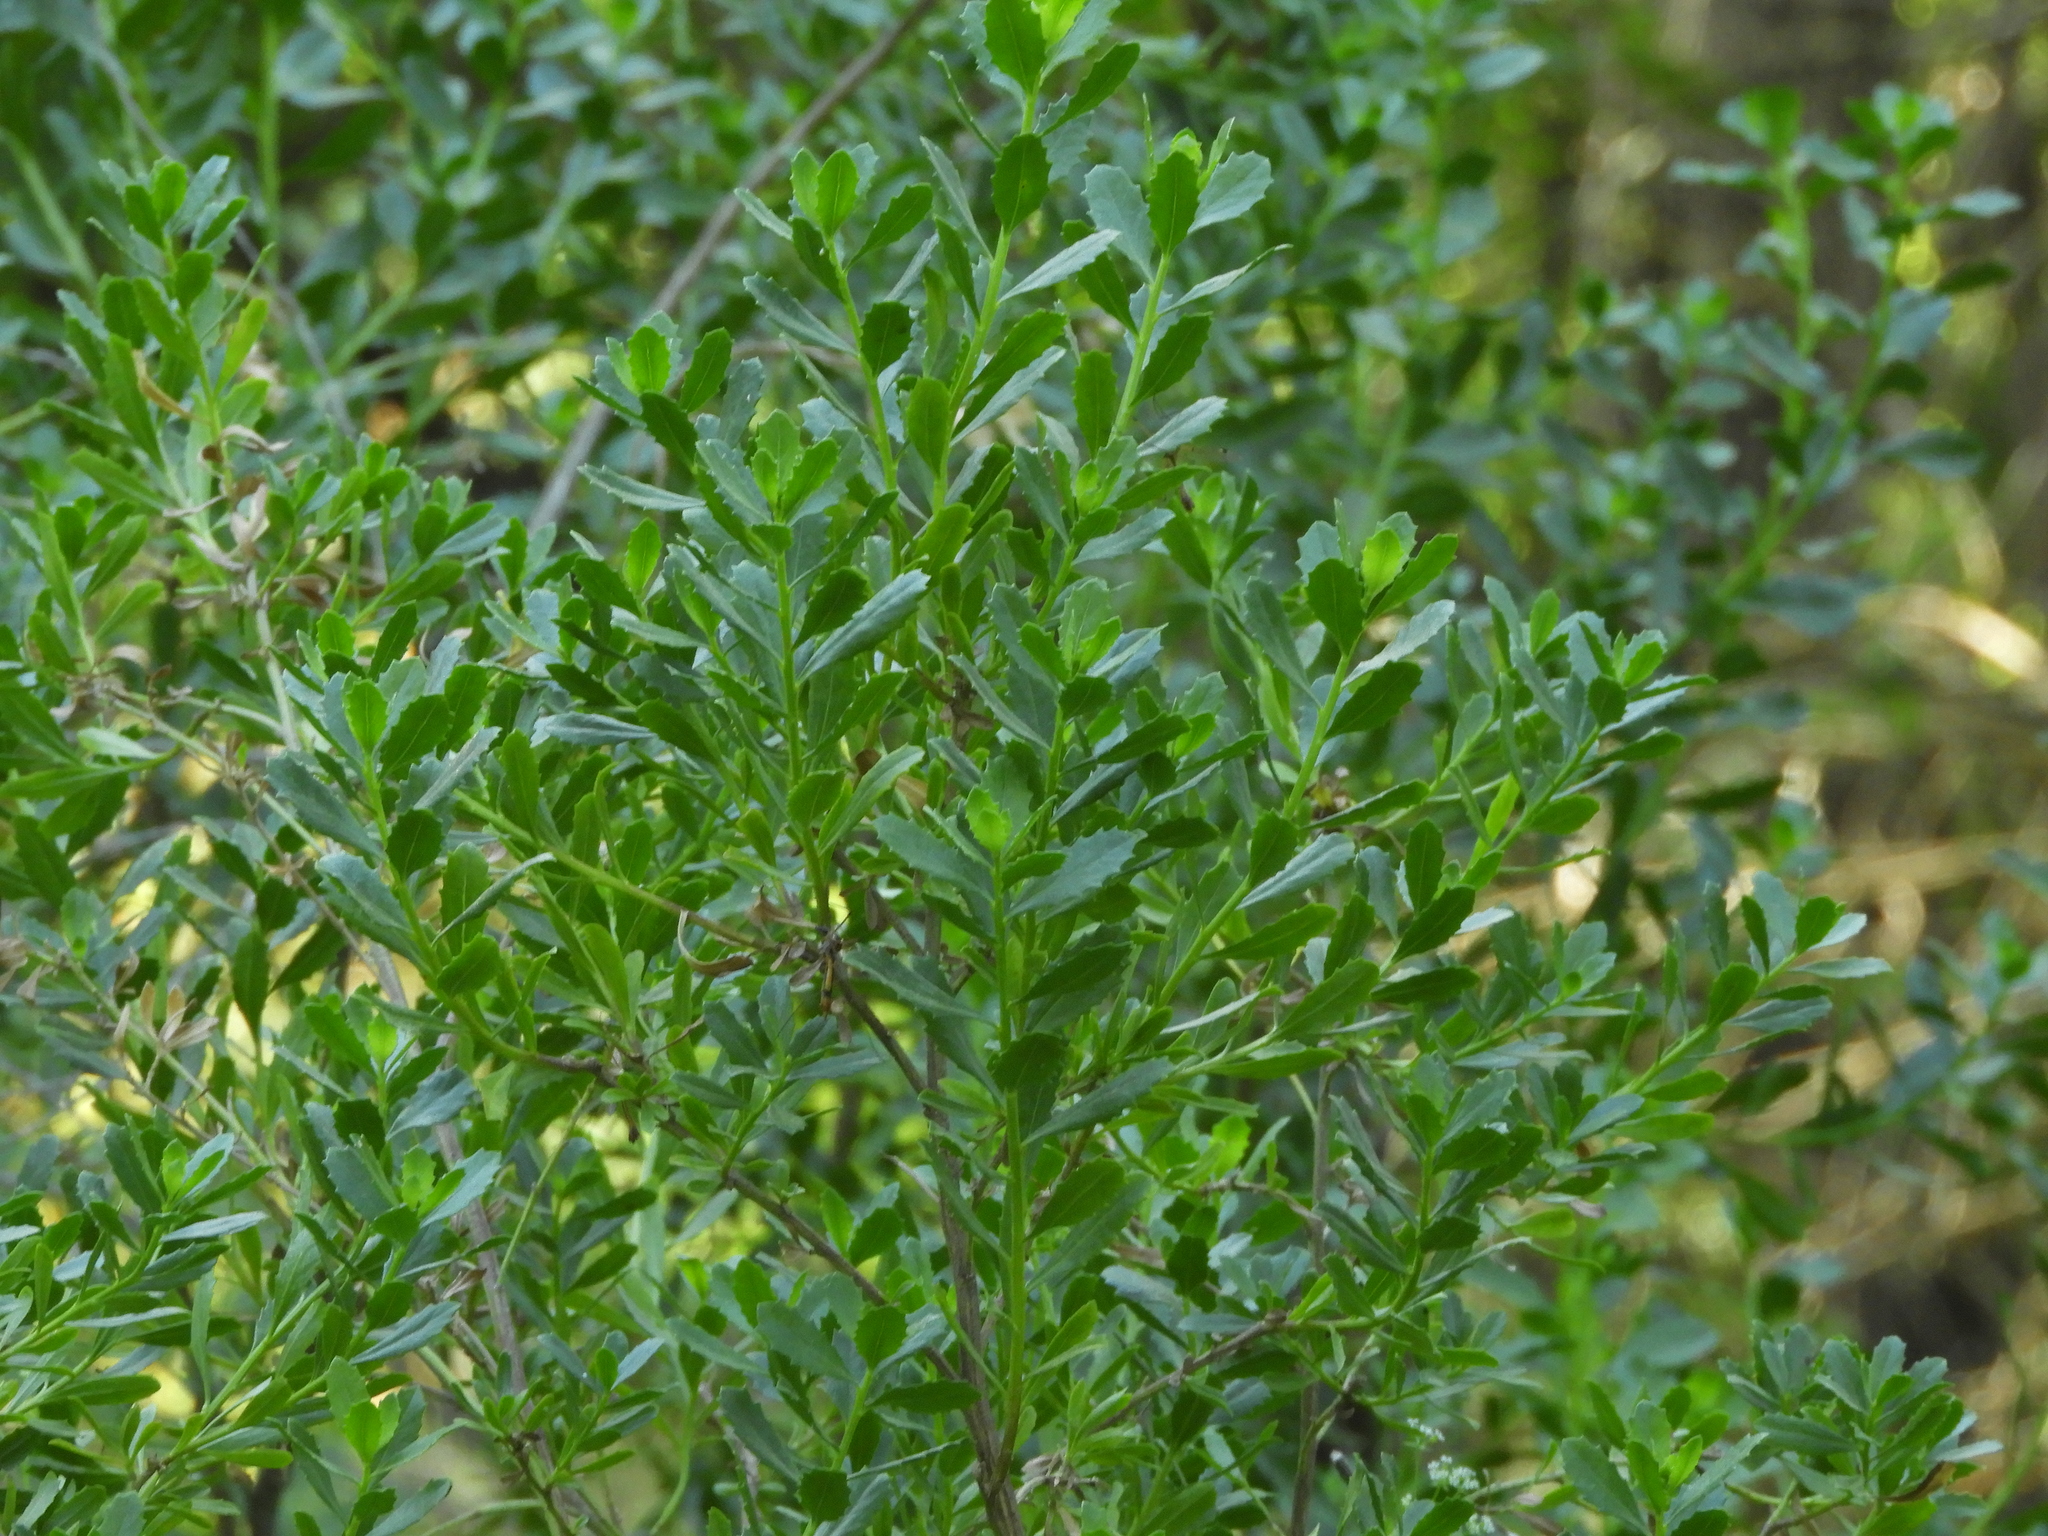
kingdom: Plantae
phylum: Tracheophyta
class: Magnoliopsida
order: Asterales
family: Asteraceae
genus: Baccharis
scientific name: Baccharis pilularis
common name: Coyotebrush
